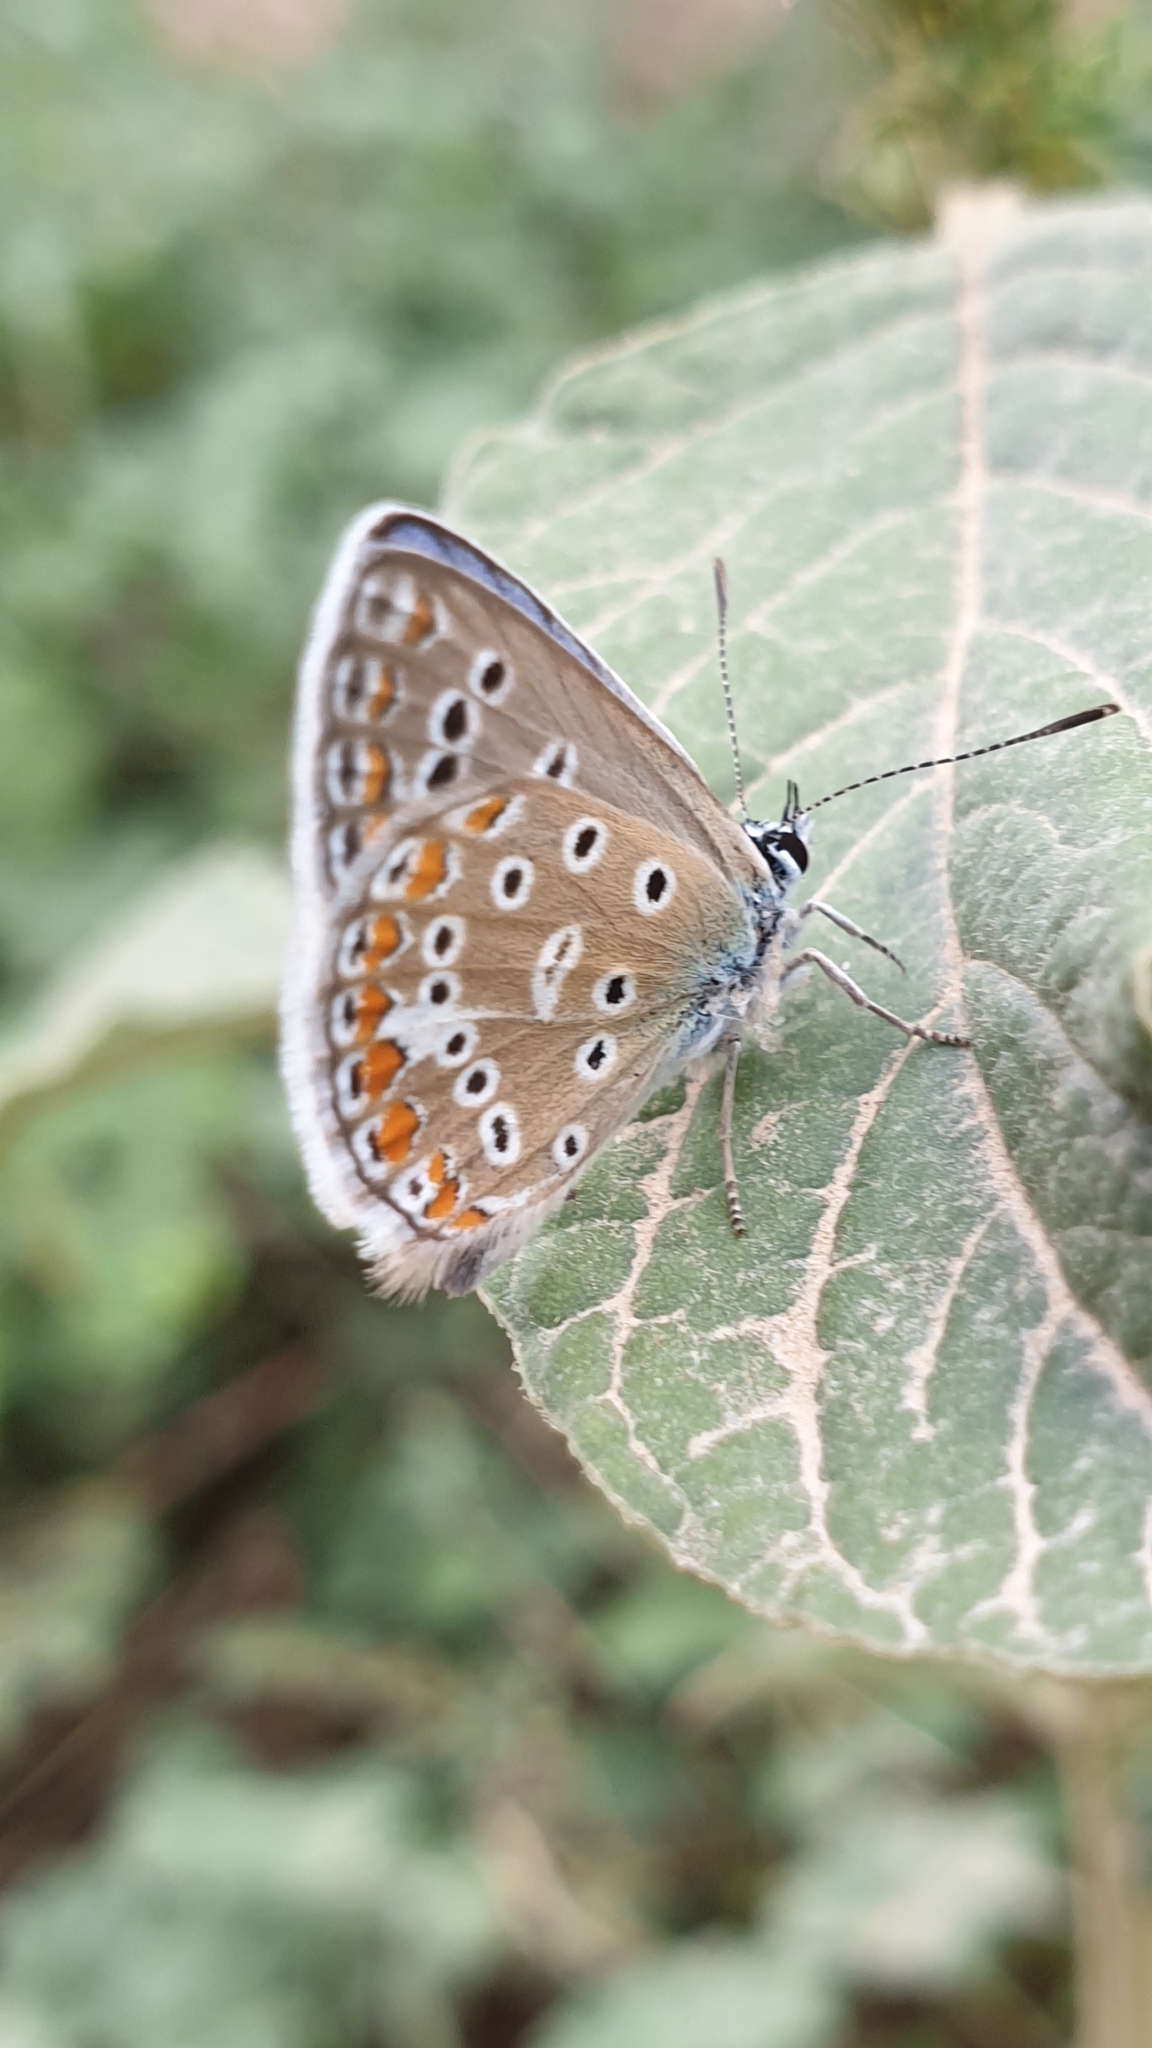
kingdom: Animalia
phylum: Arthropoda
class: Insecta
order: Lepidoptera
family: Lycaenidae
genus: Polyommatus
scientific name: Polyommatus icarus
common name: Common blue
